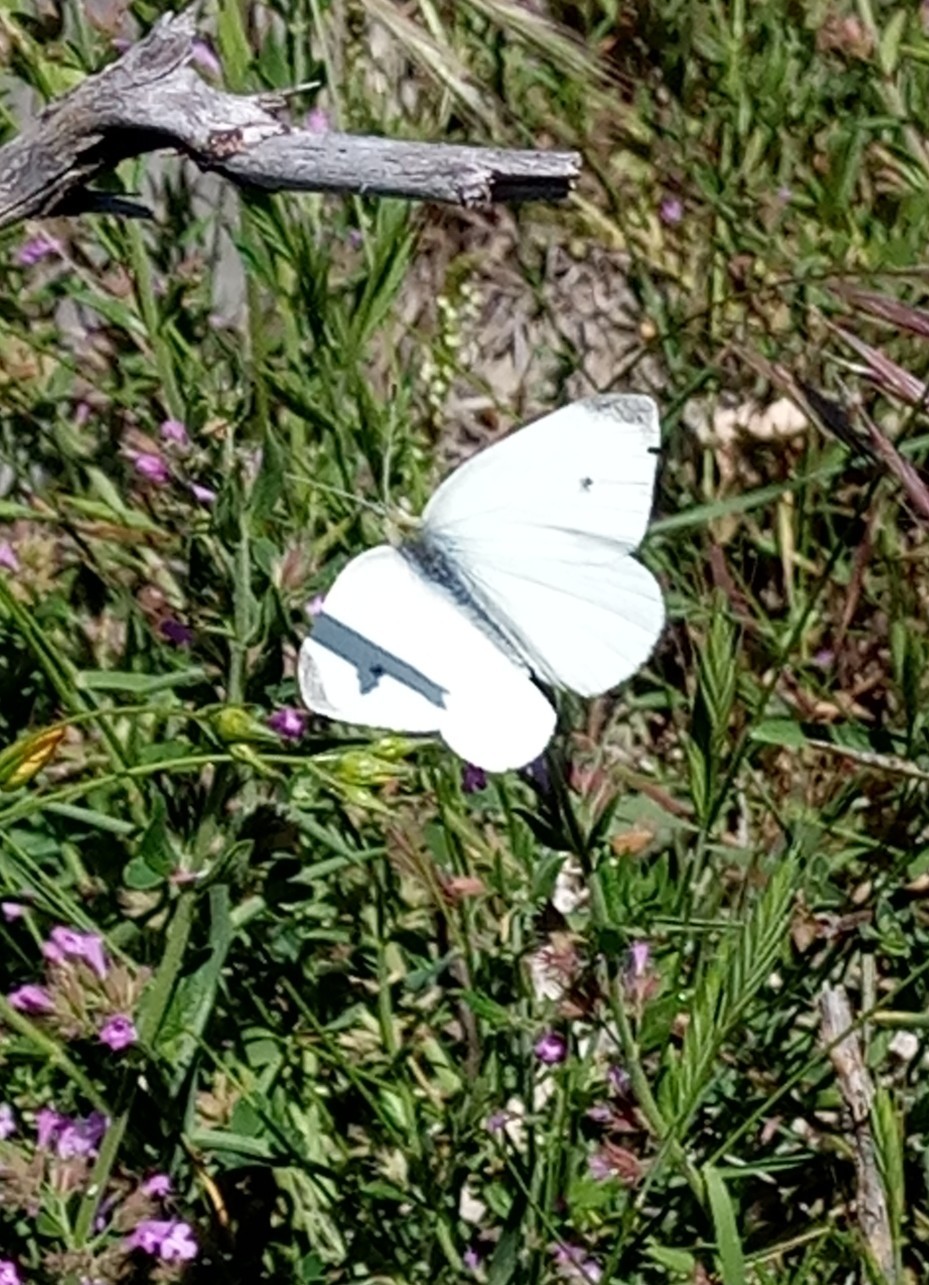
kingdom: Animalia
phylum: Arthropoda
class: Insecta
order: Lepidoptera
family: Pieridae
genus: Pieris
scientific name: Pieris rapae
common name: Small white
